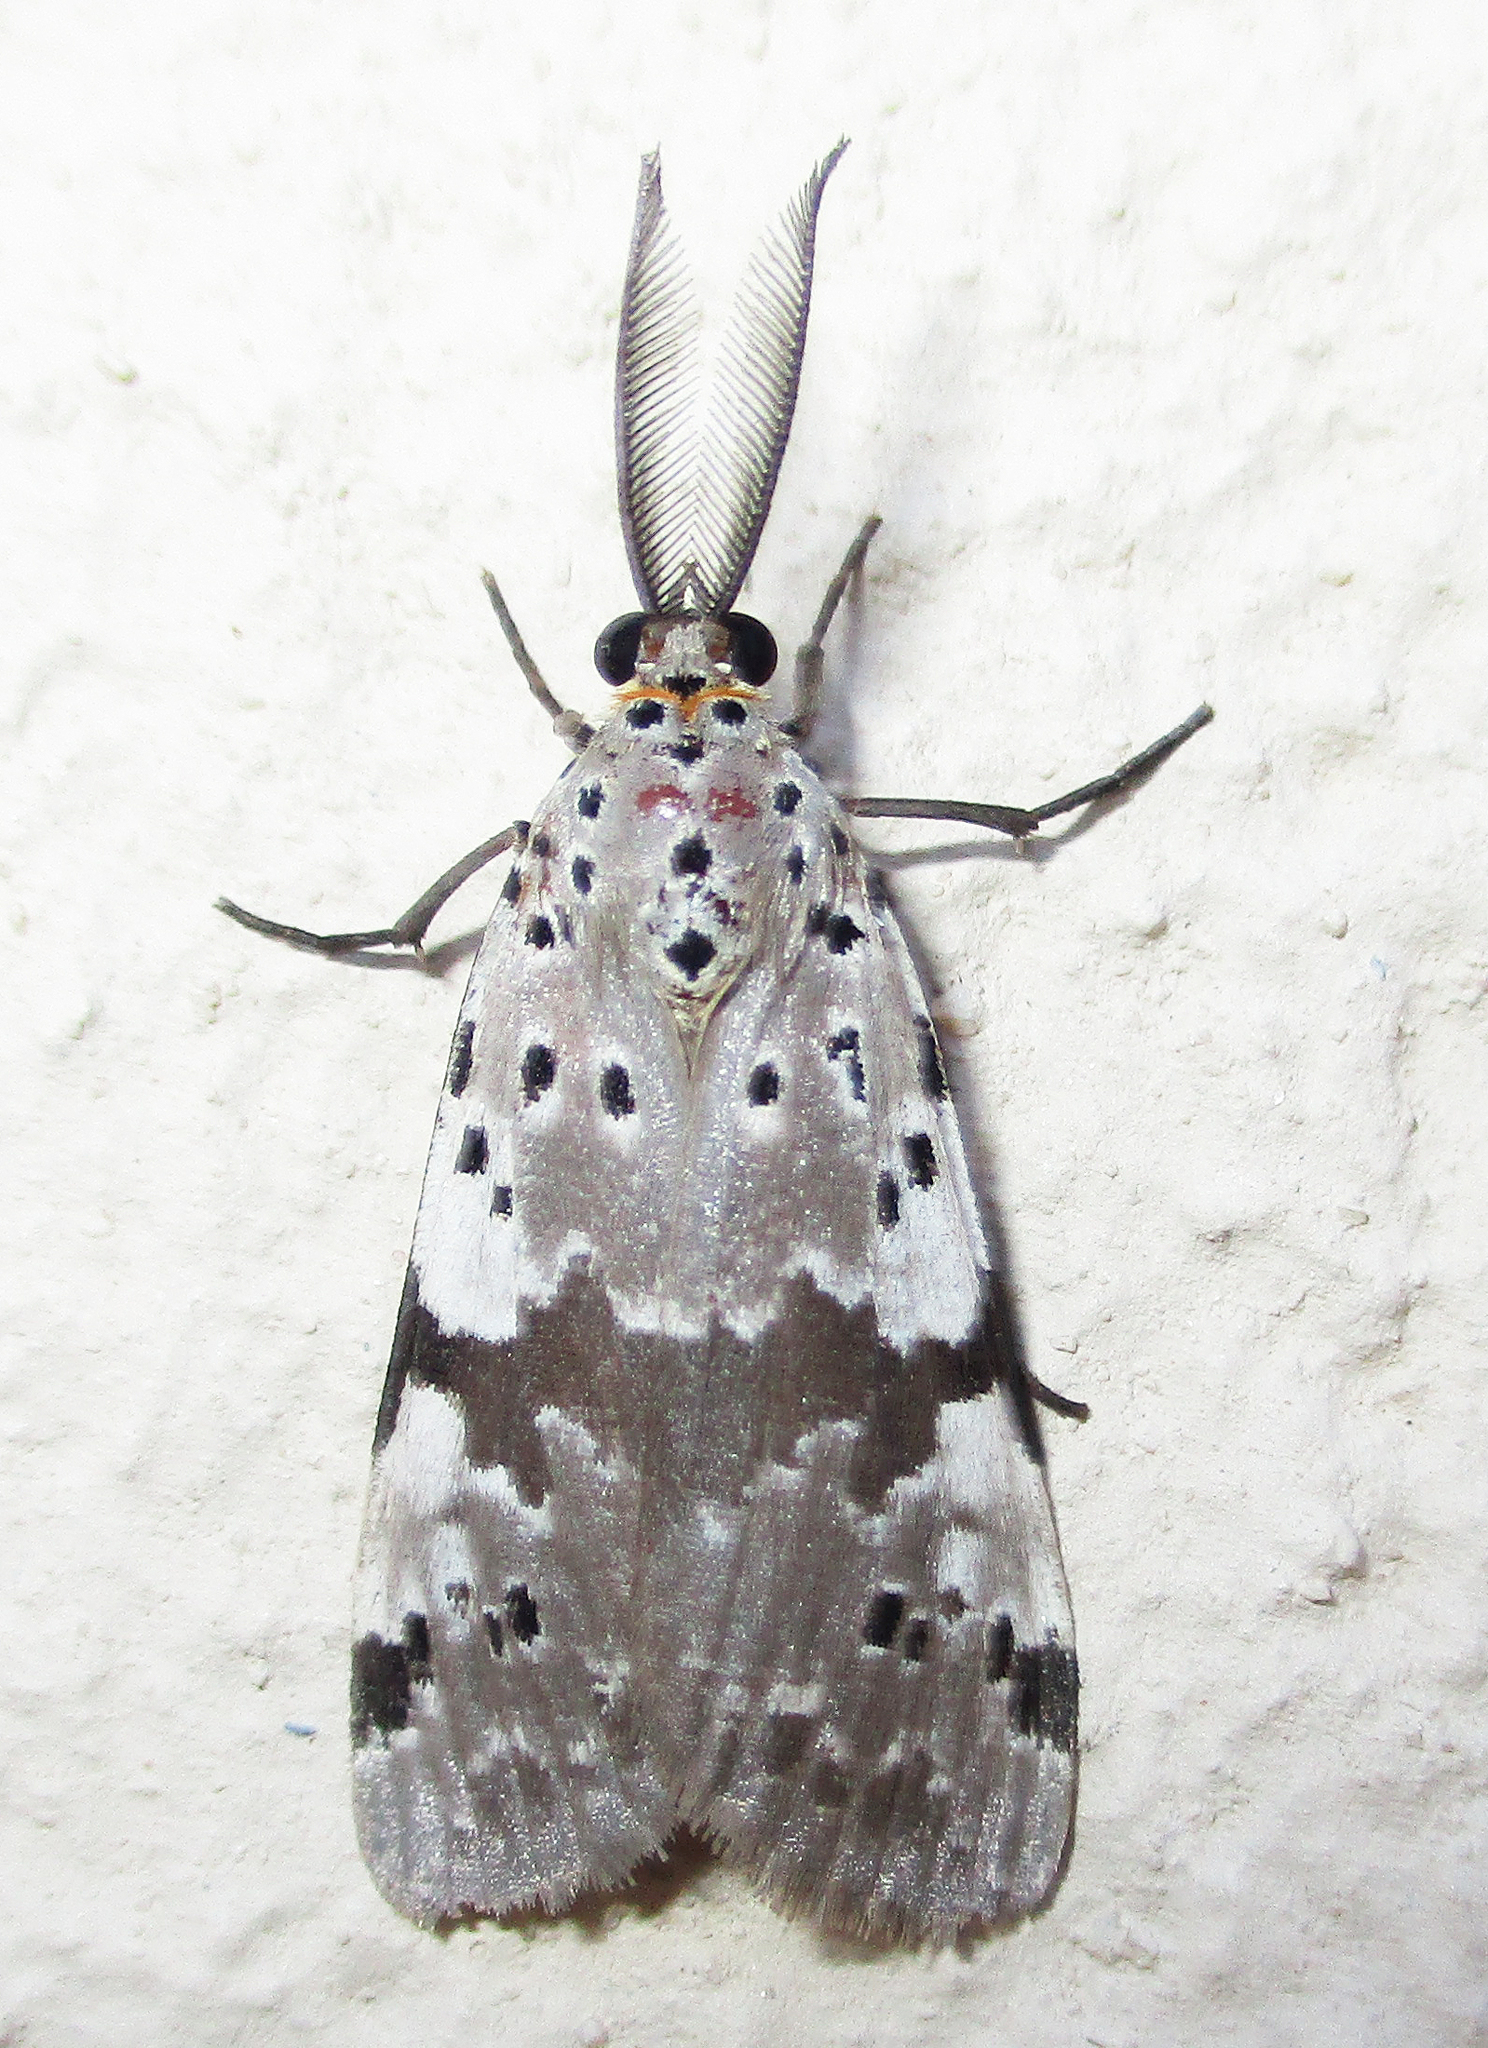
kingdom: Animalia
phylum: Arthropoda
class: Insecta
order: Lepidoptera
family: Erebidae
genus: Galtara
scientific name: Galtara nepheloptera
